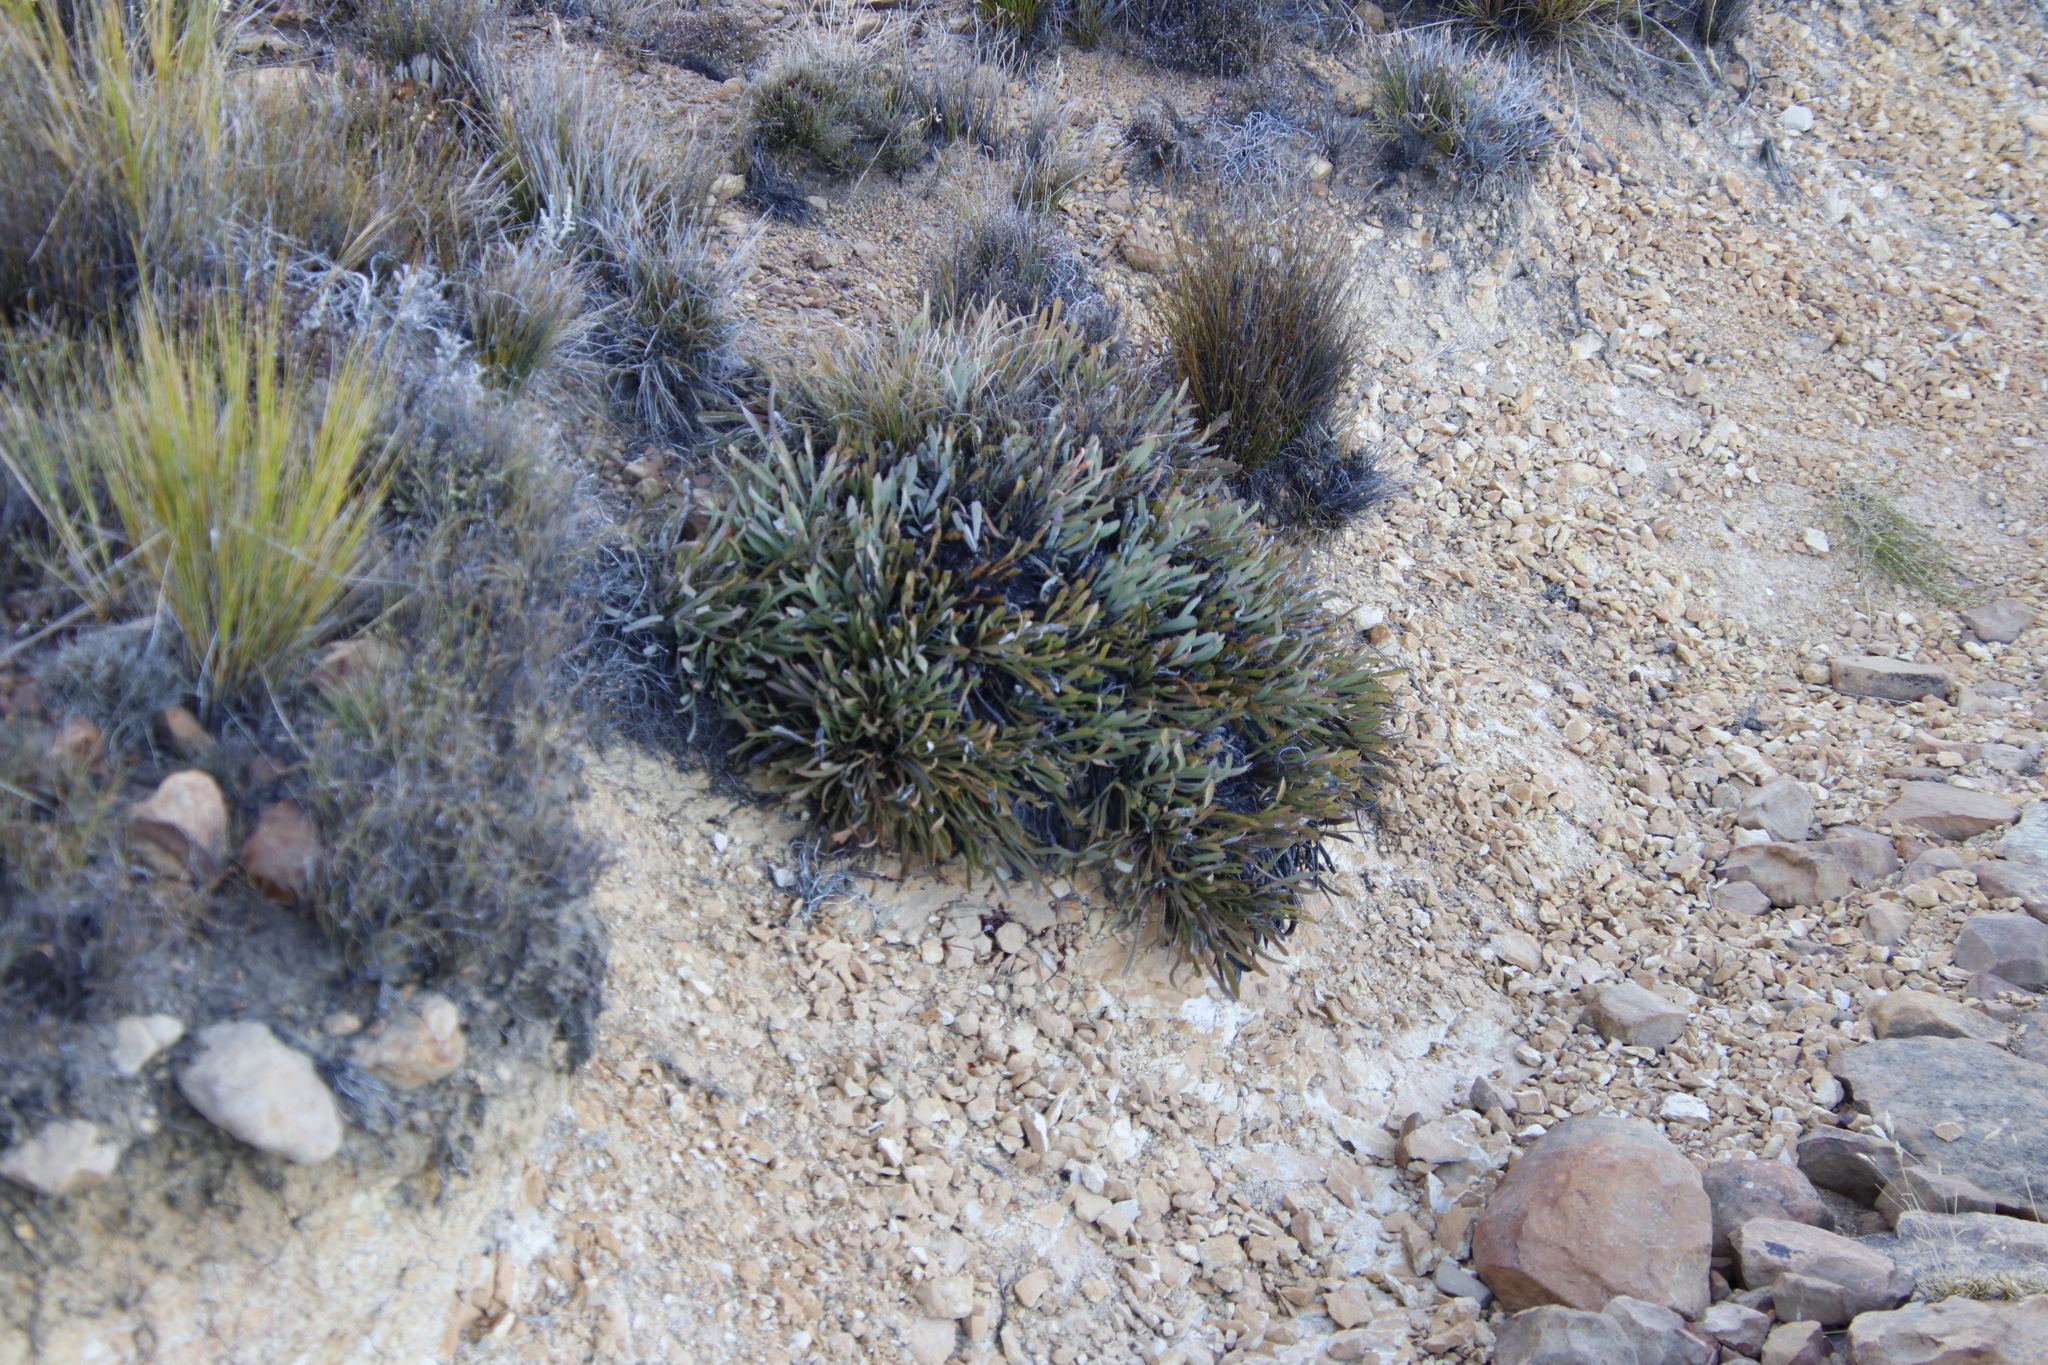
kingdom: Plantae
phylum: Tracheophyta
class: Magnoliopsida
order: Proteales
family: Proteaceae
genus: Protea
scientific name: Protea laevis
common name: Smooth-leaf sugarbush
